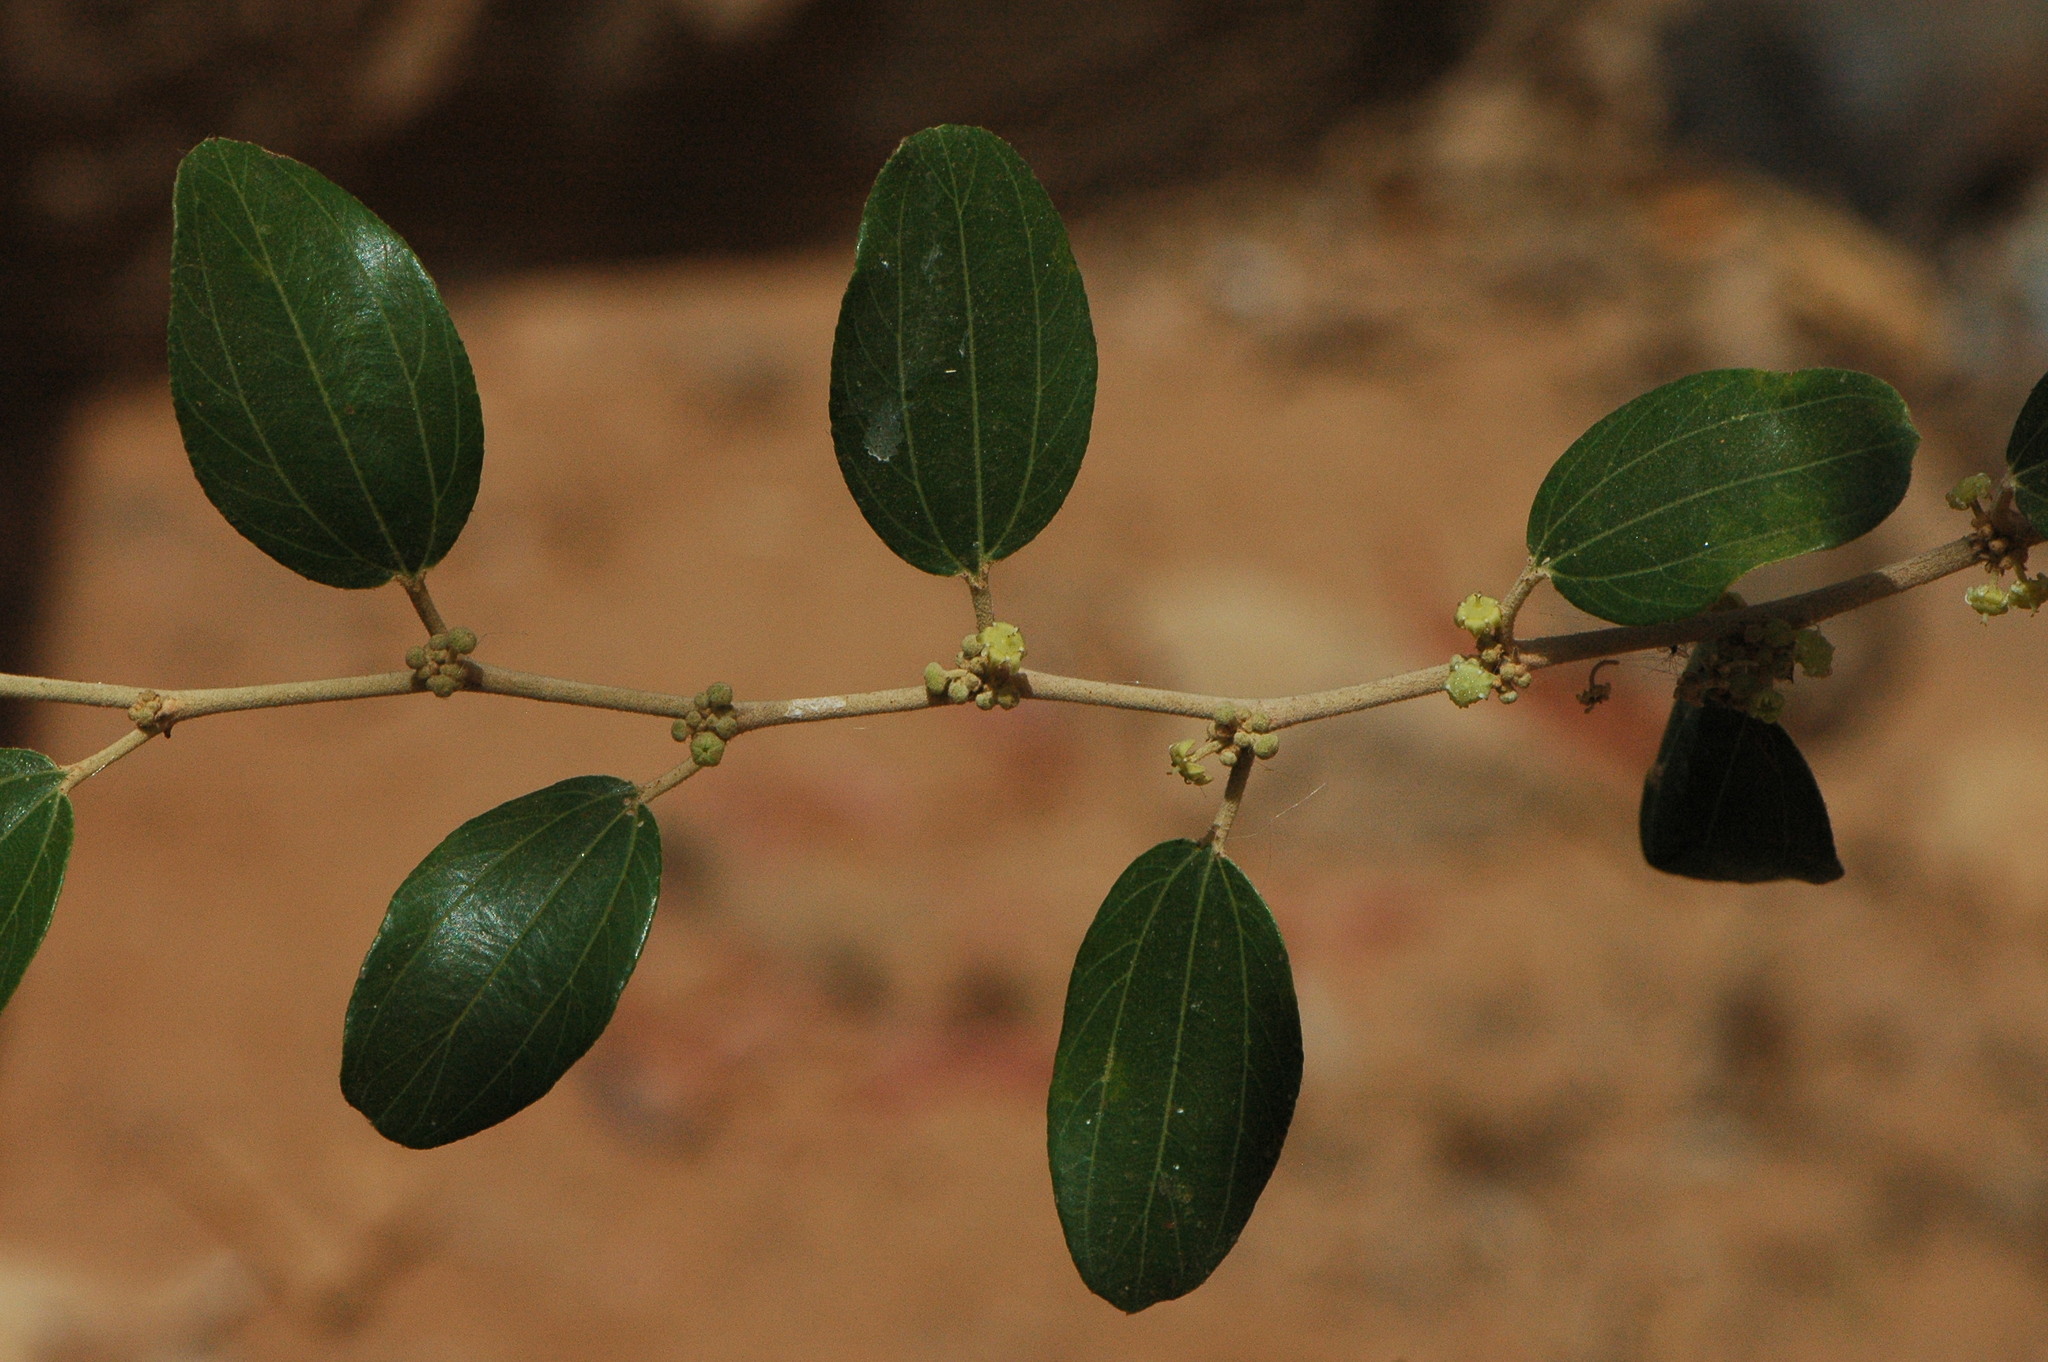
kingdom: Plantae
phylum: Tracheophyta
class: Magnoliopsida
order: Rosales
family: Rhamnaceae
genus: Ziziphus
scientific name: Ziziphus spina-christi
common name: Syrian christ-thorn
